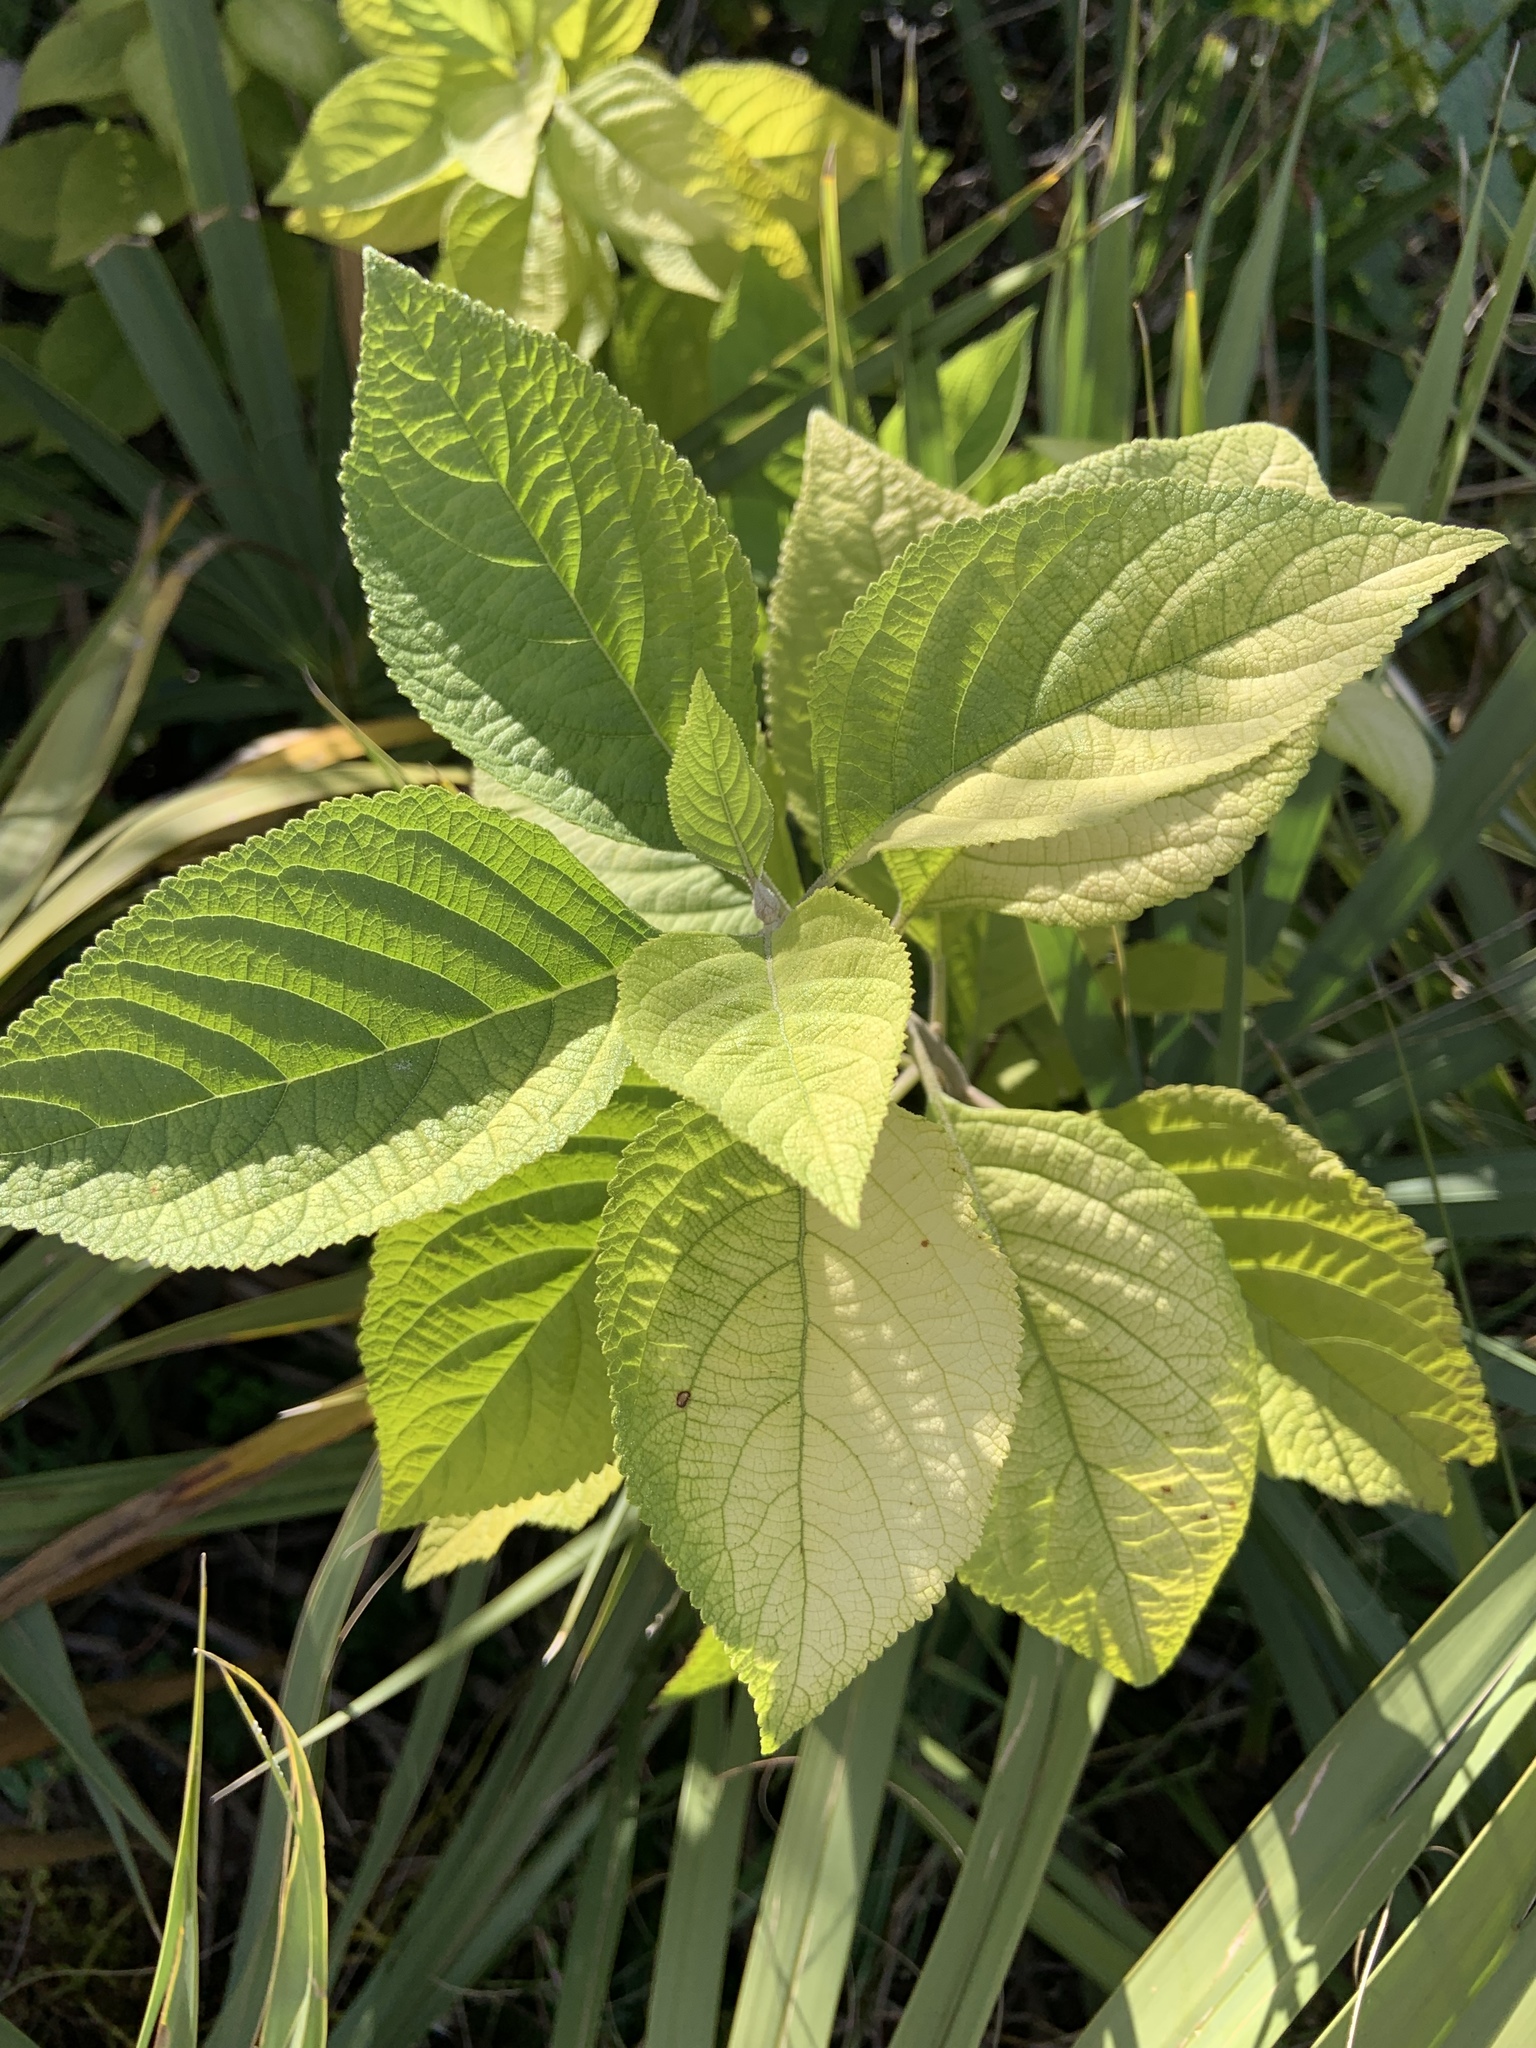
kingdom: Plantae
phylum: Tracheophyta
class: Magnoliopsida
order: Lamiales
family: Lamiaceae
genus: Callicarpa
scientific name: Callicarpa americana
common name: American beautyberry
